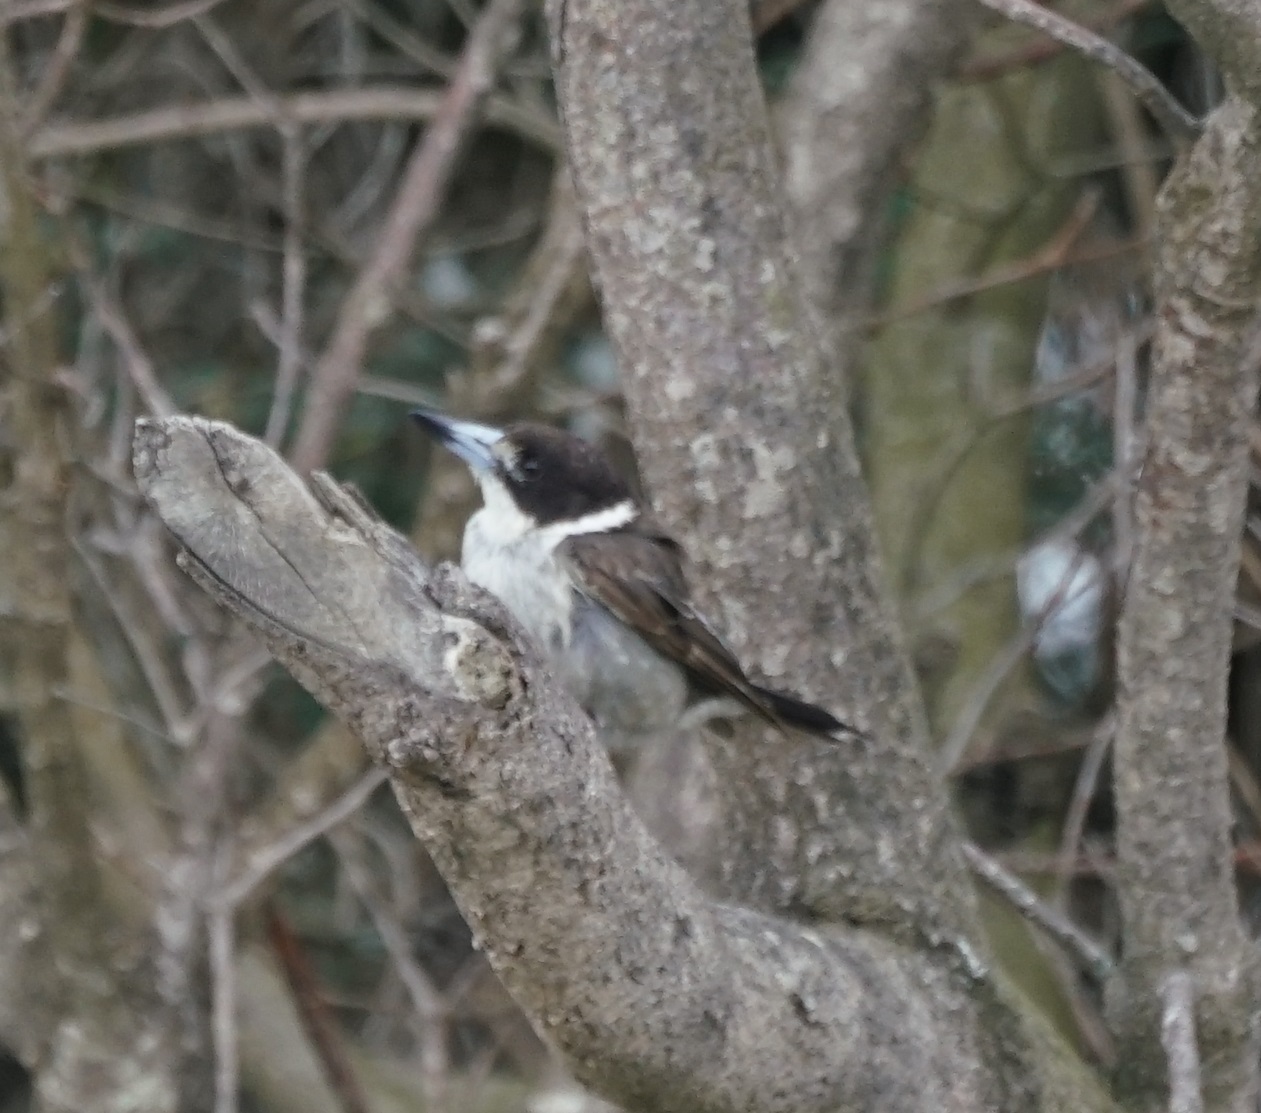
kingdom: Animalia
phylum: Chordata
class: Aves
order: Passeriformes
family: Cracticidae
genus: Cracticus
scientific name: Cracticus torquatus
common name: Grey butcherbird
